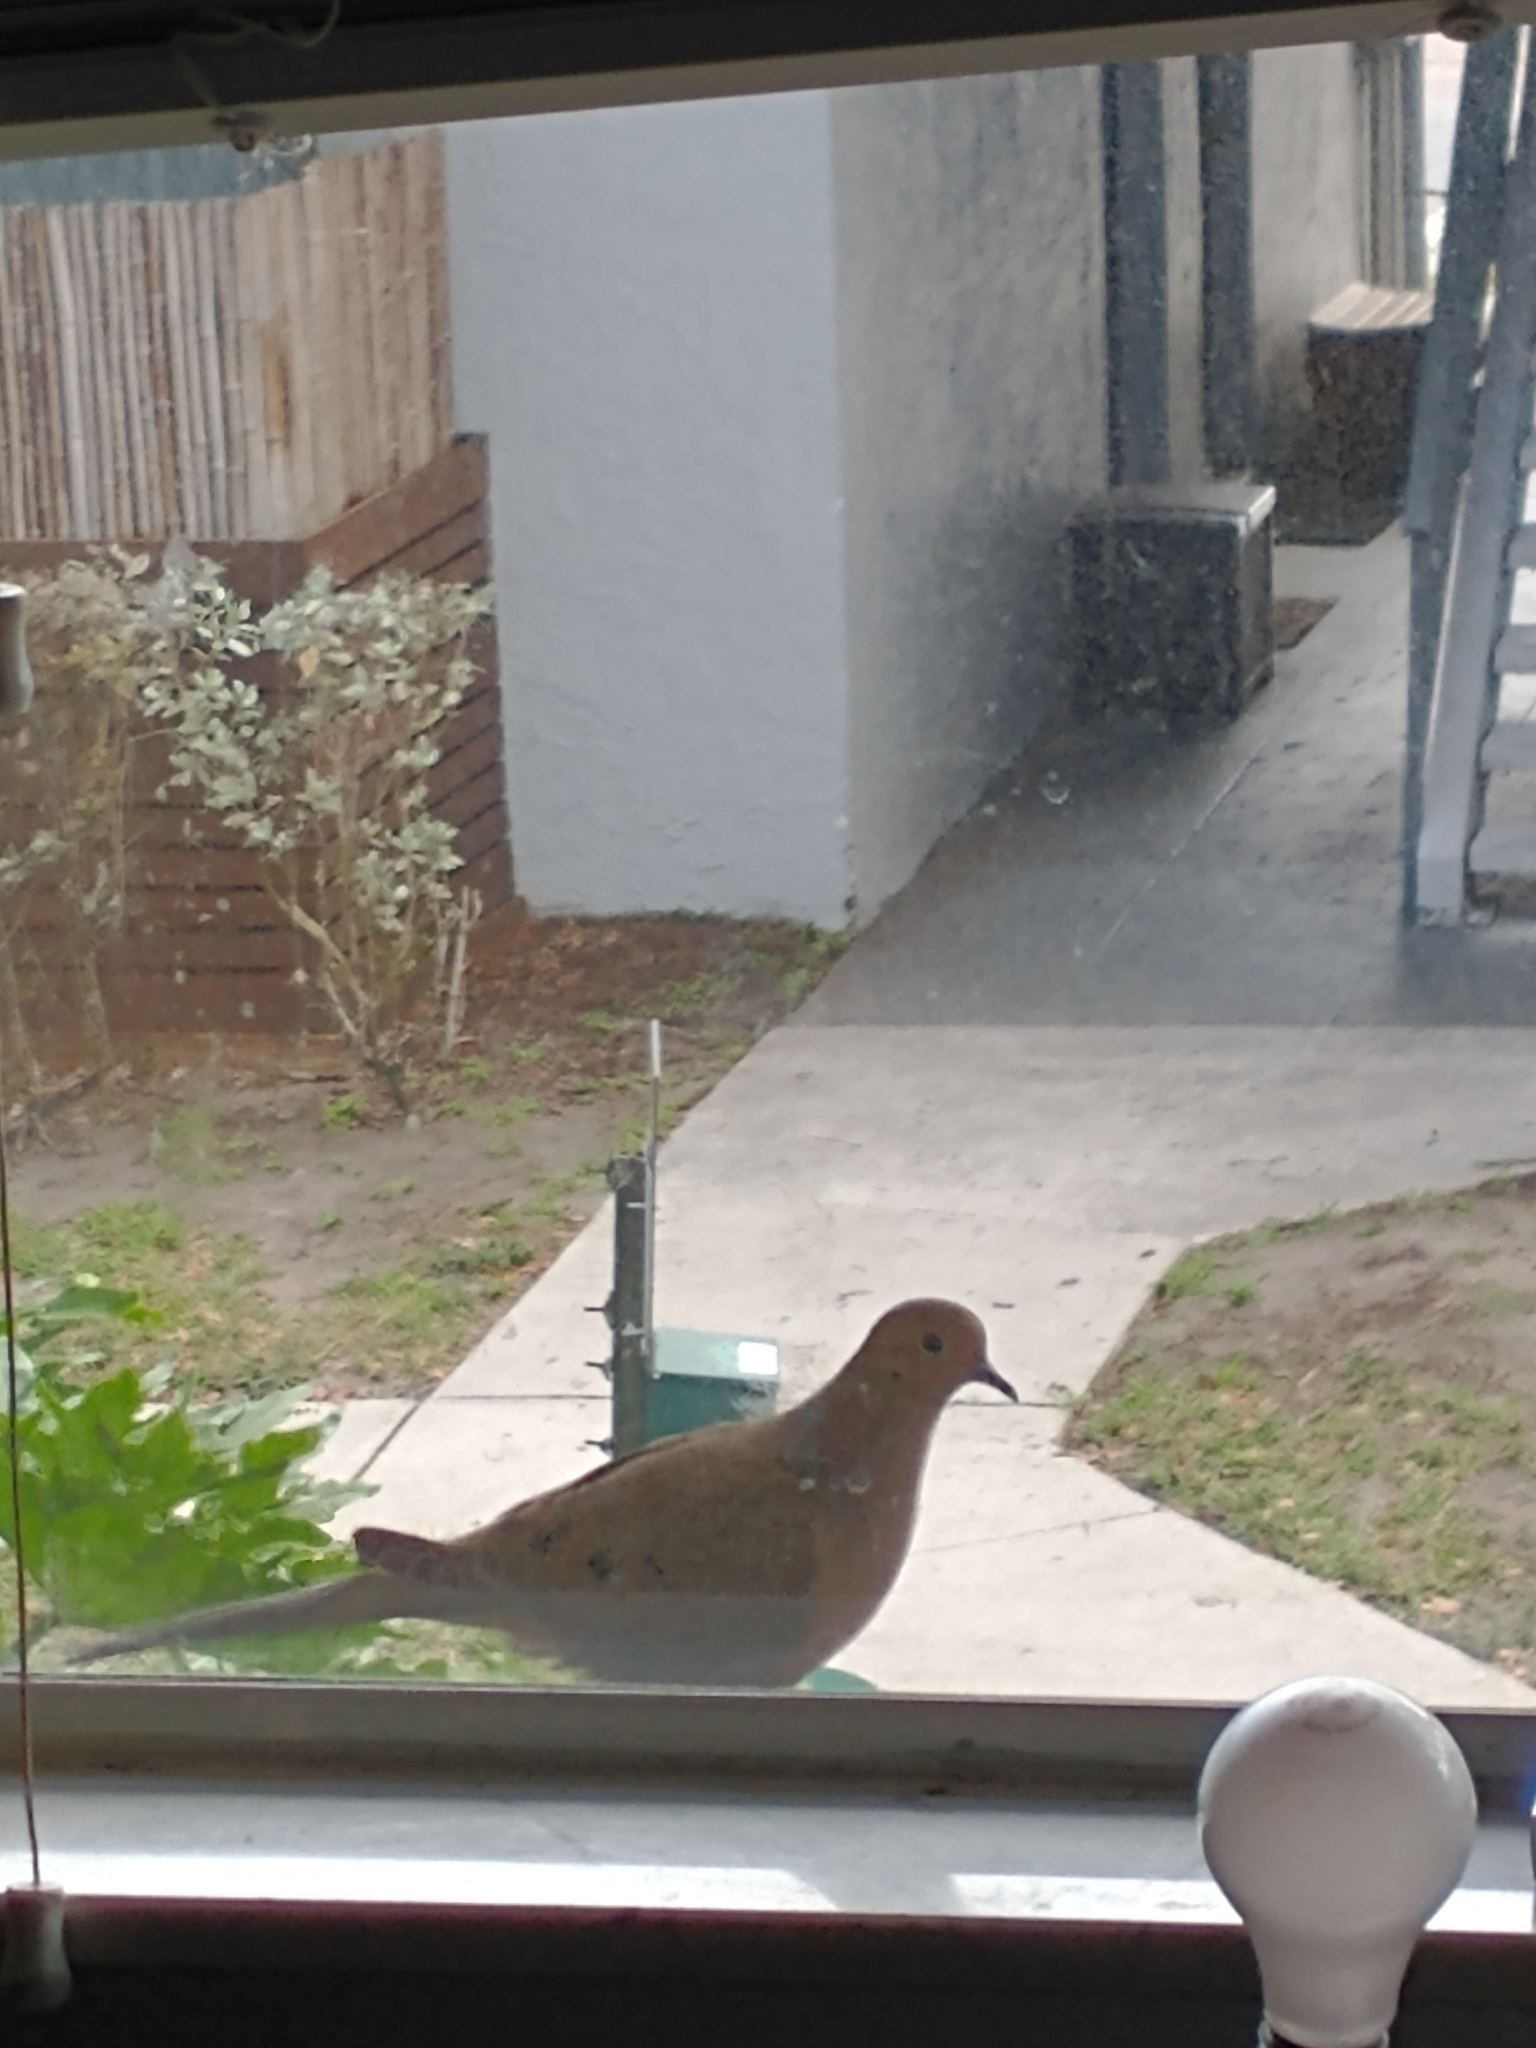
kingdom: Animalia
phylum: Chordata
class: Aves
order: Columbiformes
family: Columbidae
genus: Zenaida
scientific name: Zenaida macroura
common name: Mourning dove
